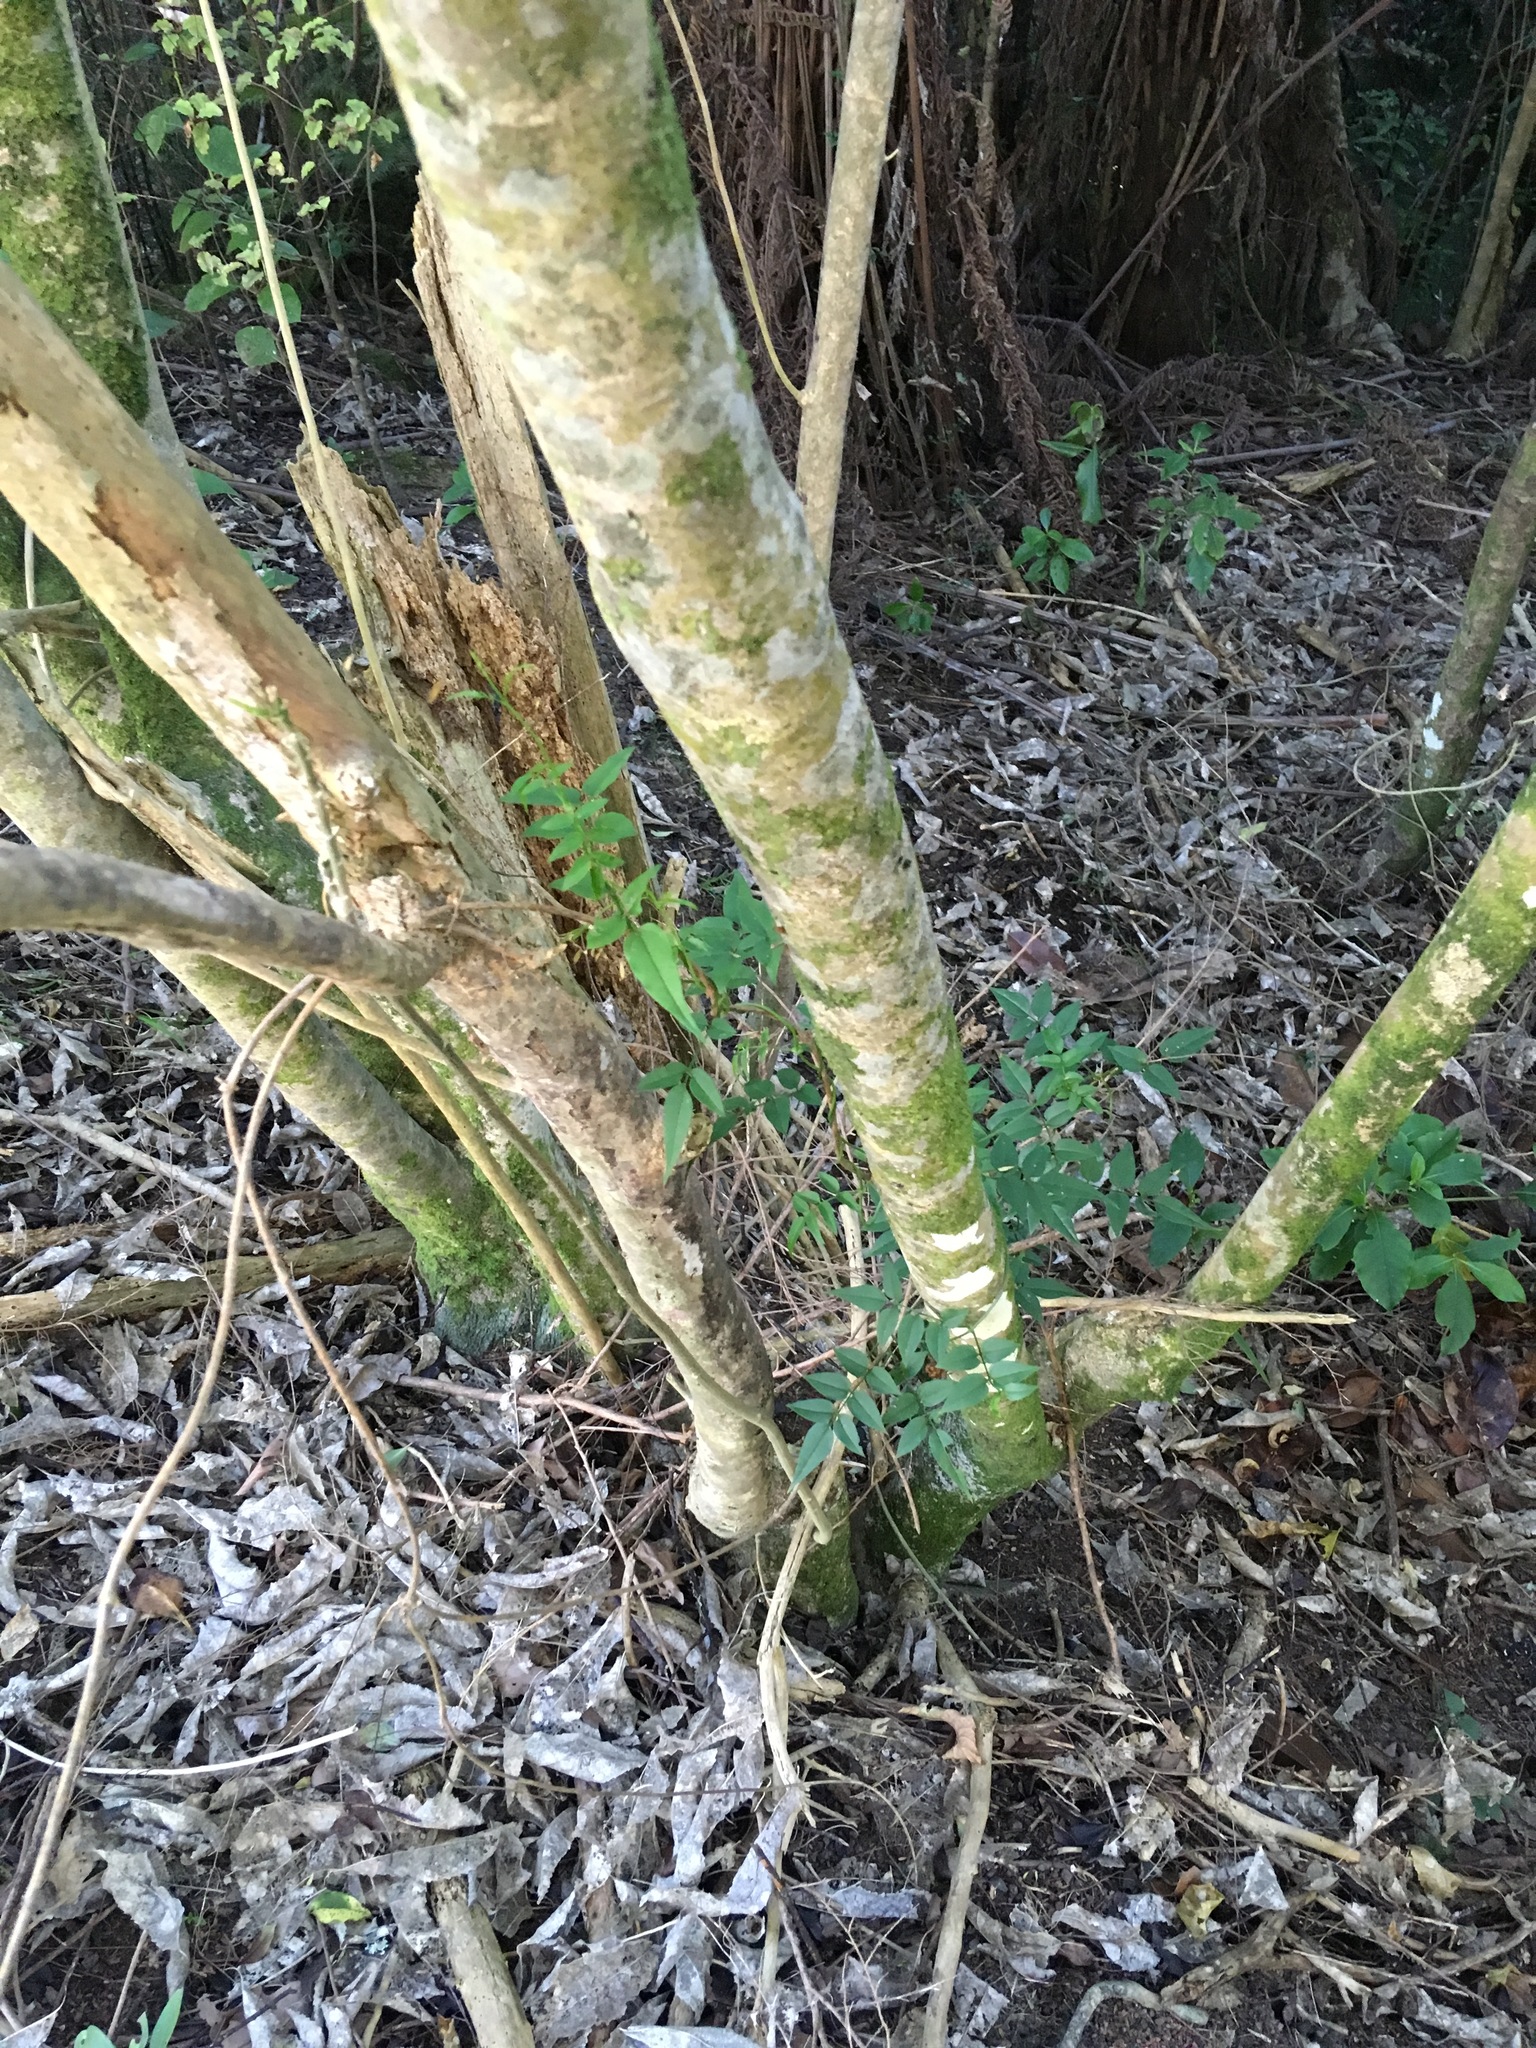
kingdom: Plantae
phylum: Tracheophyta
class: Magnoliopsida
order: Lamiales
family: Oleaceae
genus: Jasminum
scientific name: Jasminum polyanthum
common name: Pink jasmine
